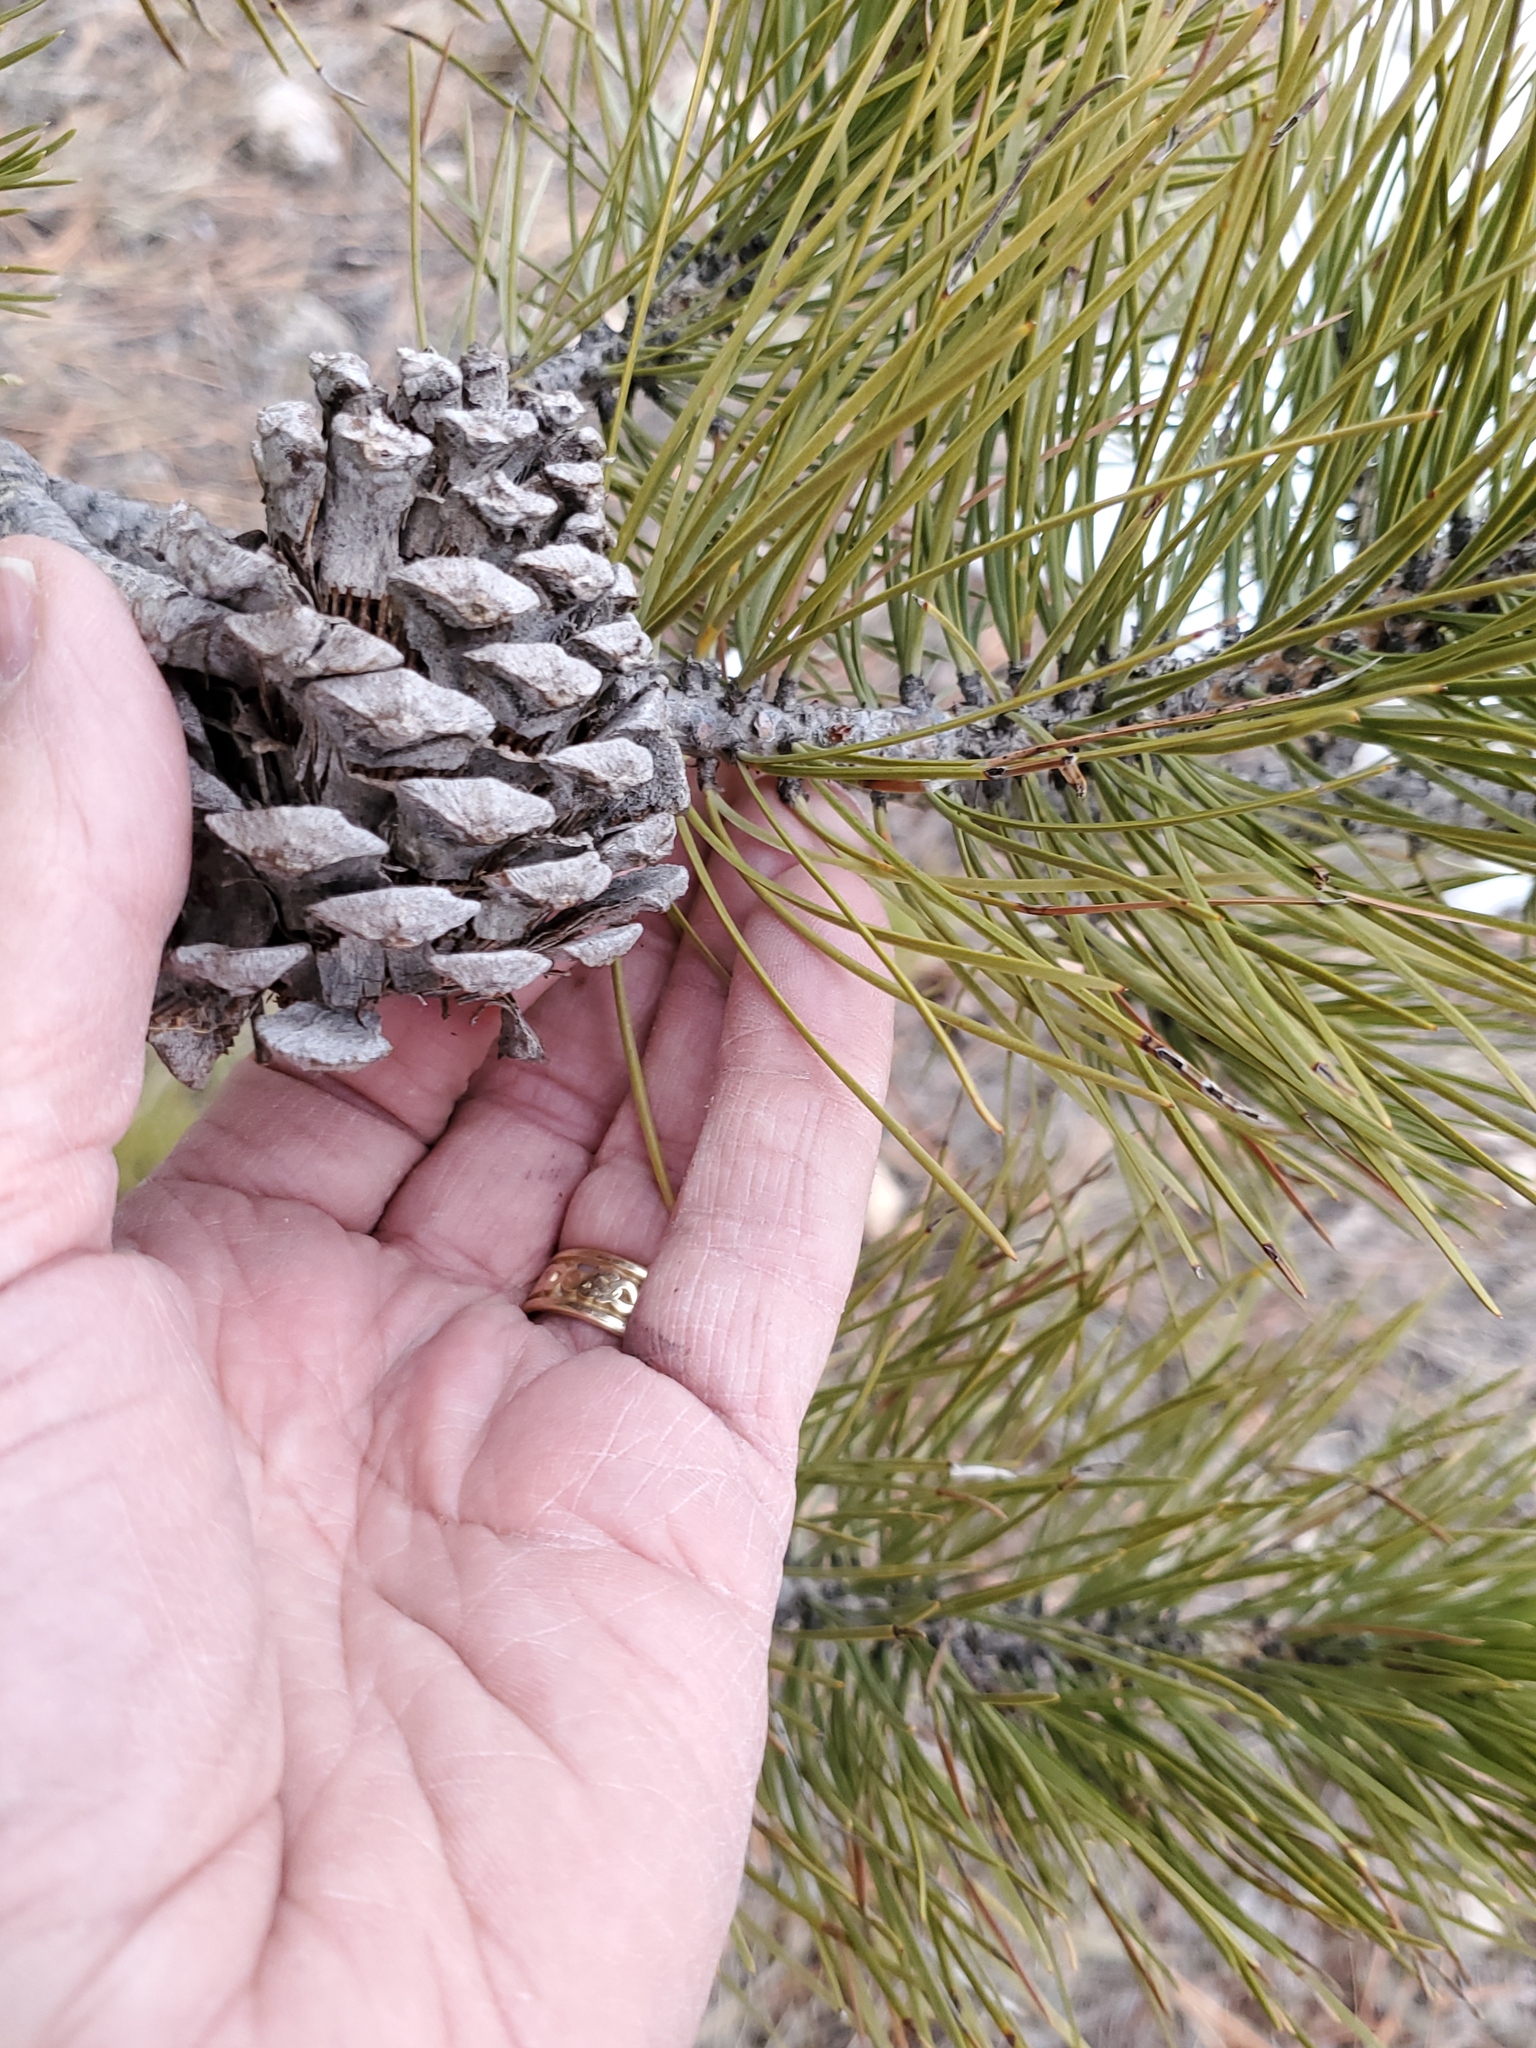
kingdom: Plantae
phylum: Tracheophyta
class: Pinopsida
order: Pinales
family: Pinaceae
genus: Pinus
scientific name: Pinus ponderosa
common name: Western yellow-pine
